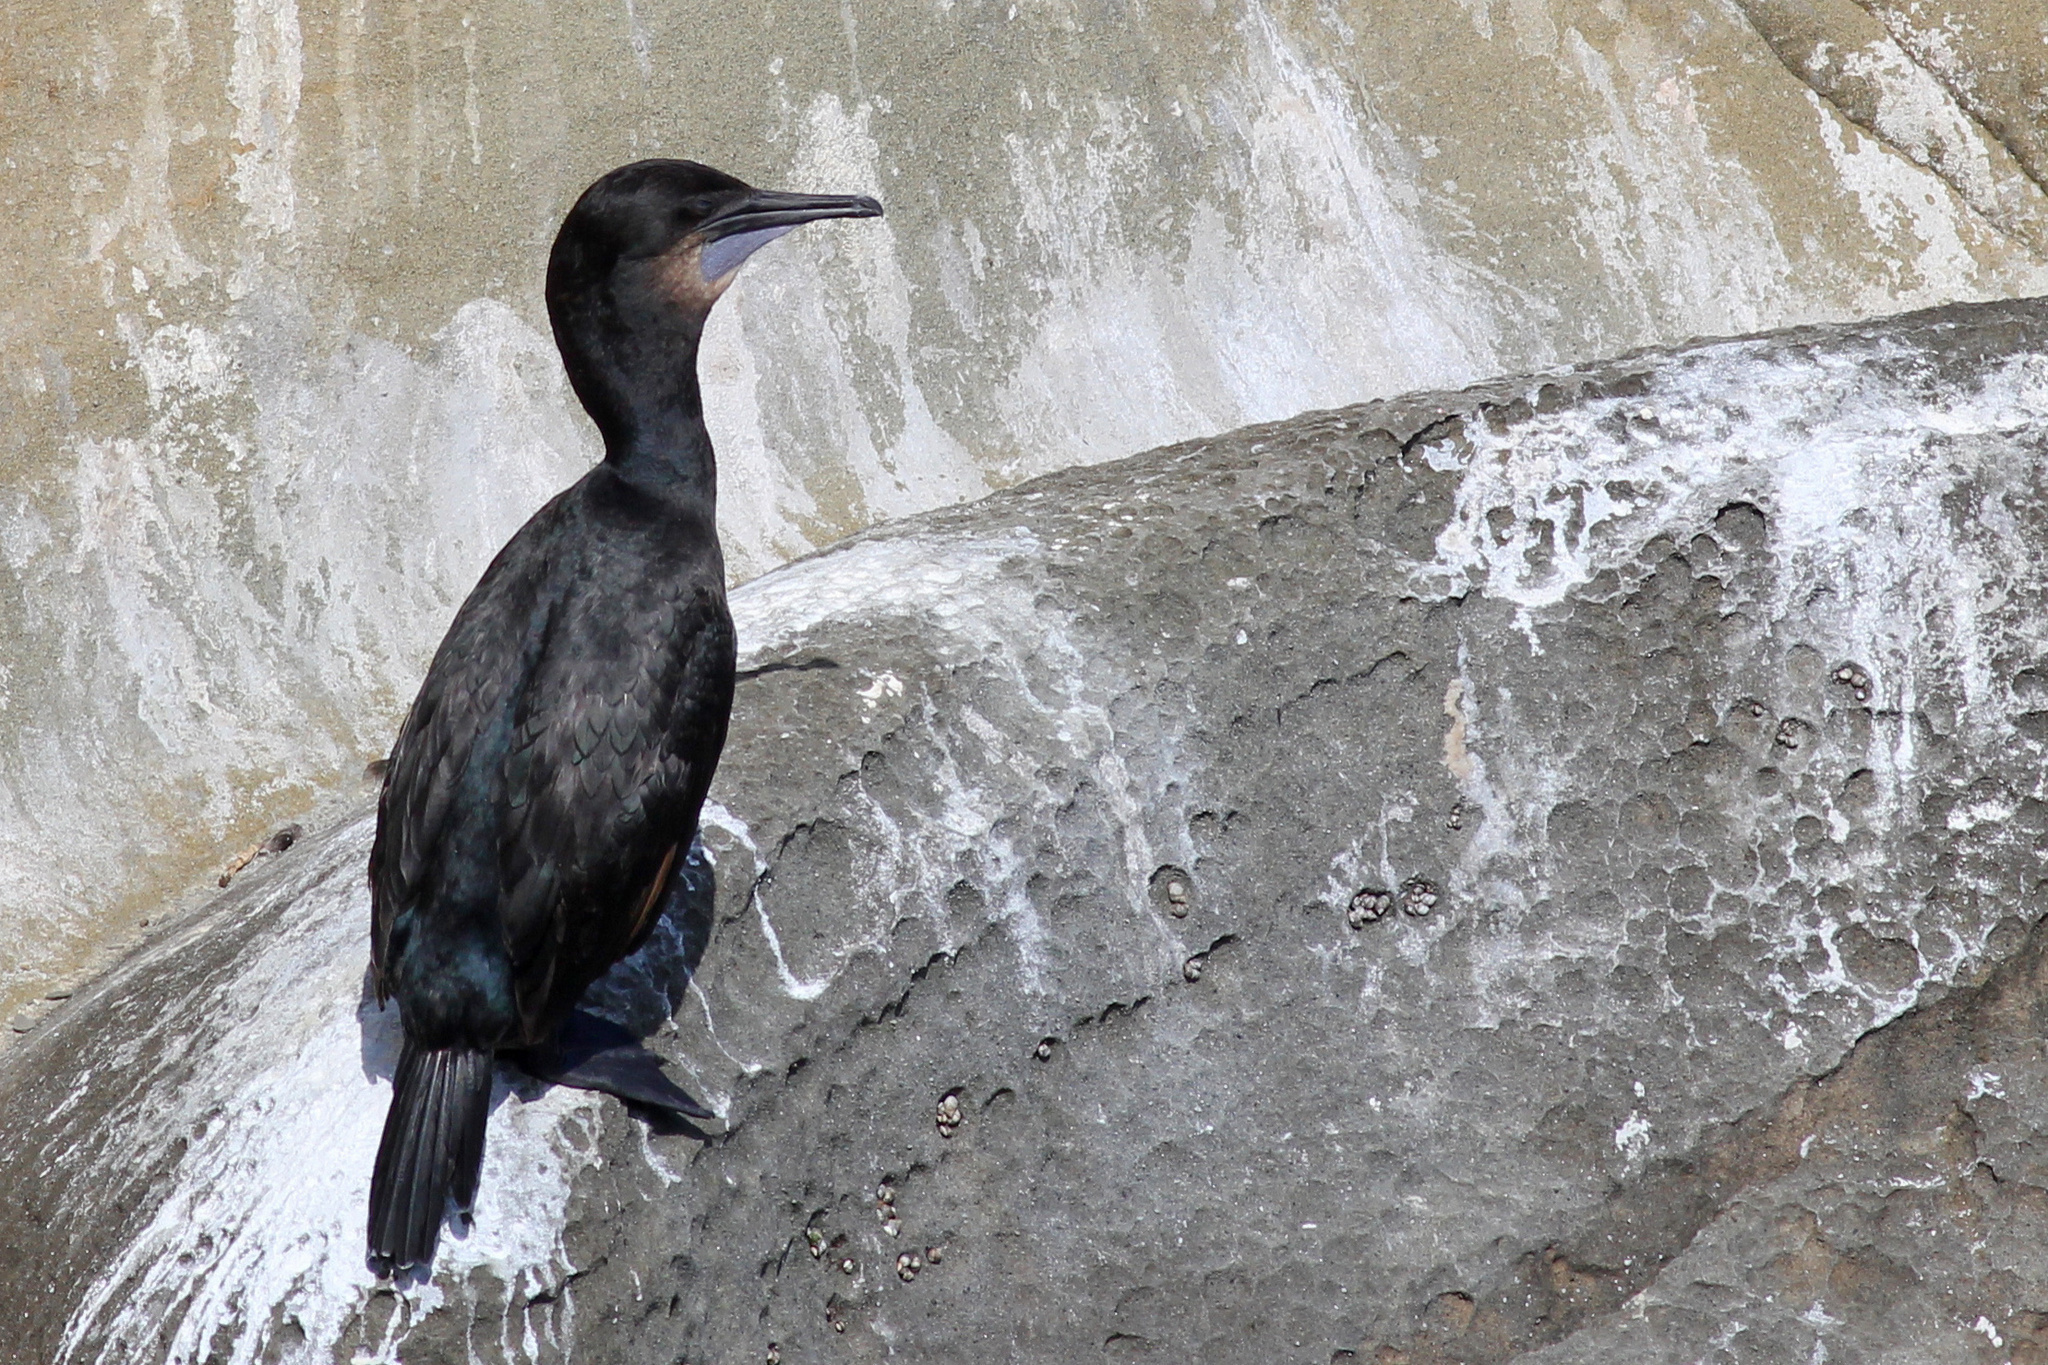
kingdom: Animalia
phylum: Chordata
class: Aves
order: Suliformes
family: Phalacrocoracidae
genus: Urile
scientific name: Urile penicillatus
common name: Brandt's cormorant
